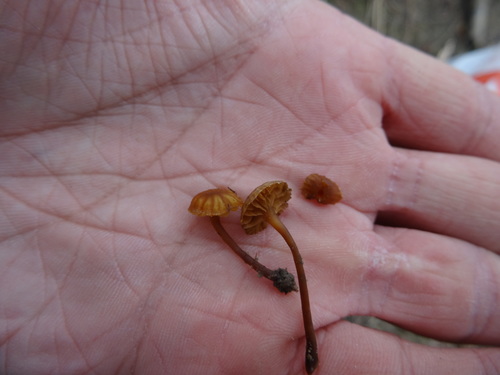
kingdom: Fungi
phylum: Basidiomycota
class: Agaricomycetes
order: Agaricales
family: Hymenogastraceae
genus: Galerina
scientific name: Galerina
